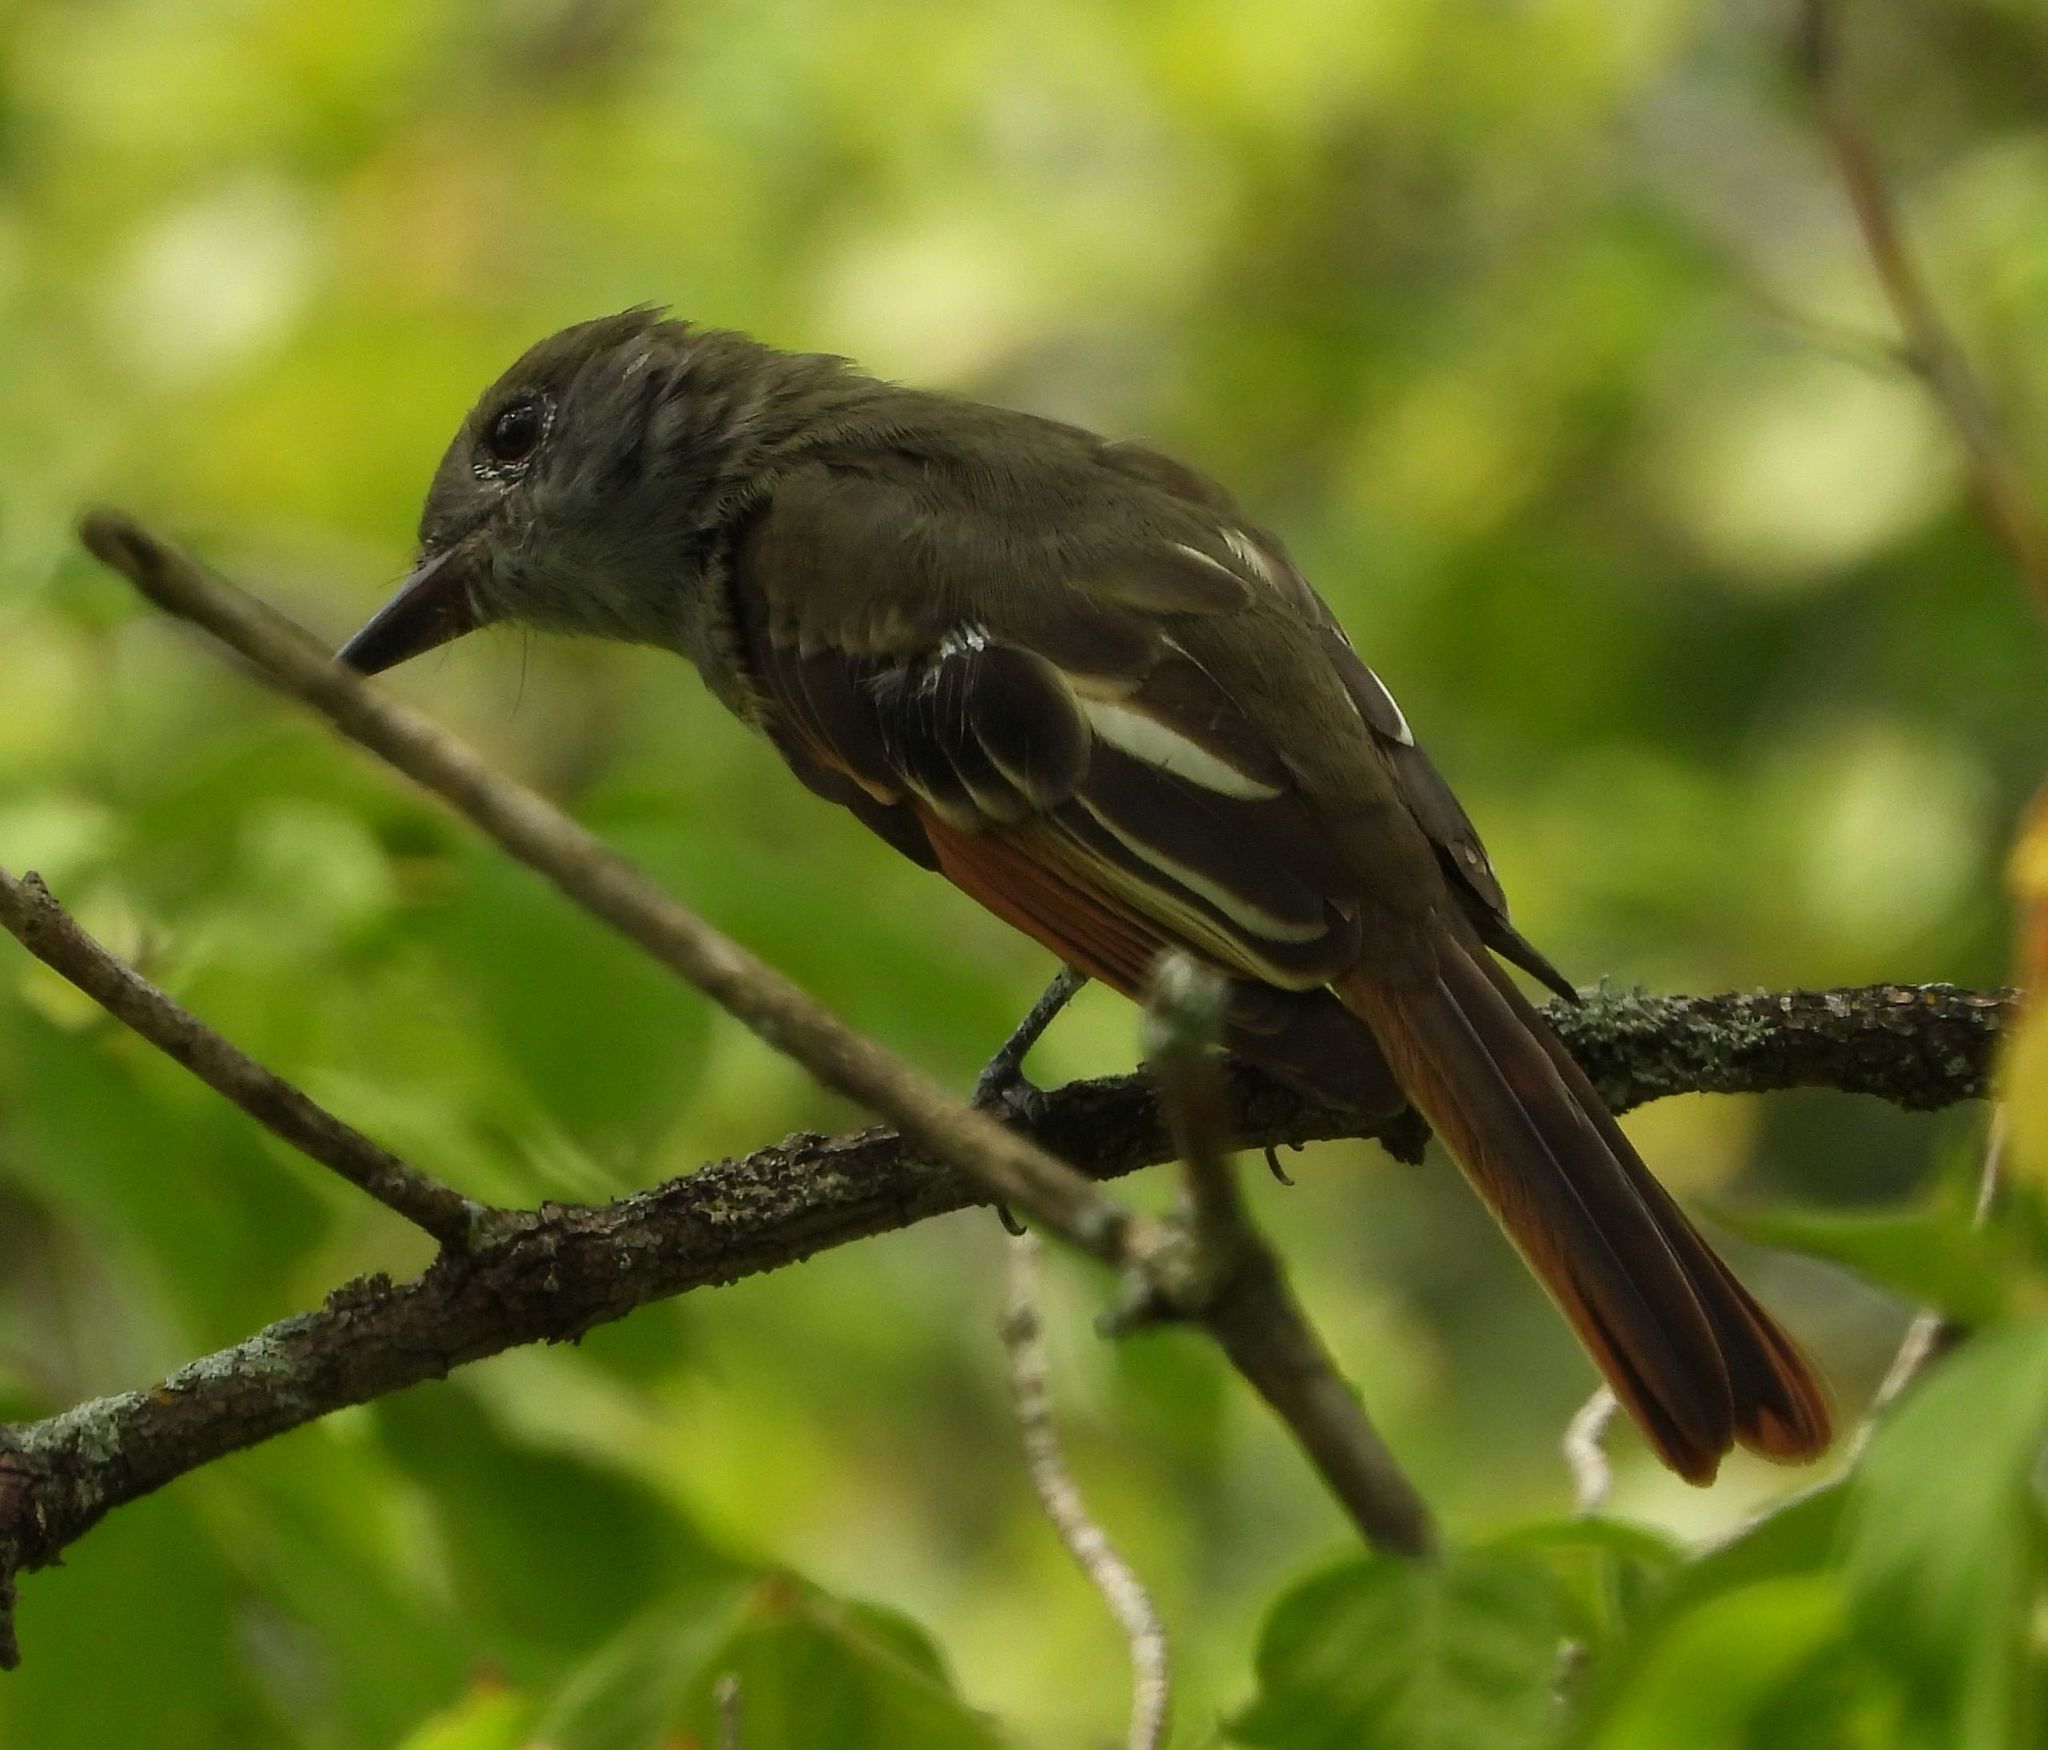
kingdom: Animalia
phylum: Chordata
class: Aves
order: Passeriformes
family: Tyrannidae
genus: Myiarchus
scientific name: Myiarchus crinitus
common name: Great crested flycatcher
